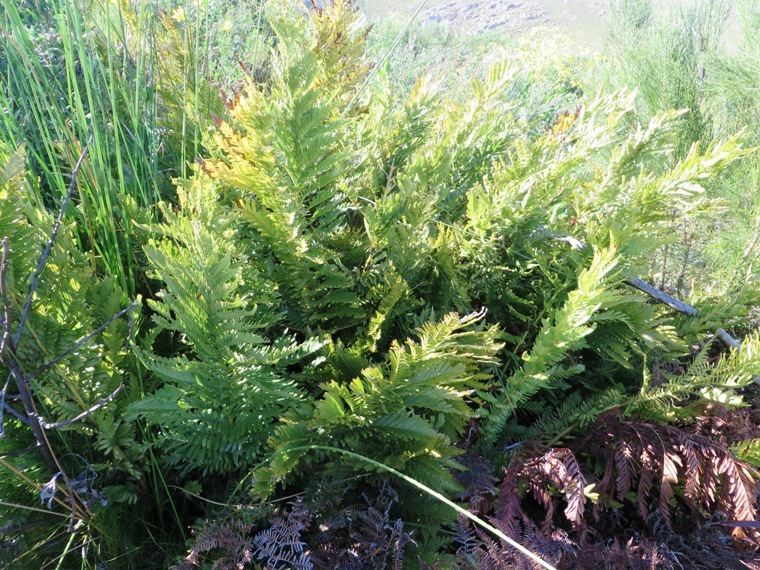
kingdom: Plantae
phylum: Tracheophyta
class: Polypodiopsida
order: Osmundales
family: Osmundaceae
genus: Todea
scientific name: Todea barbara
